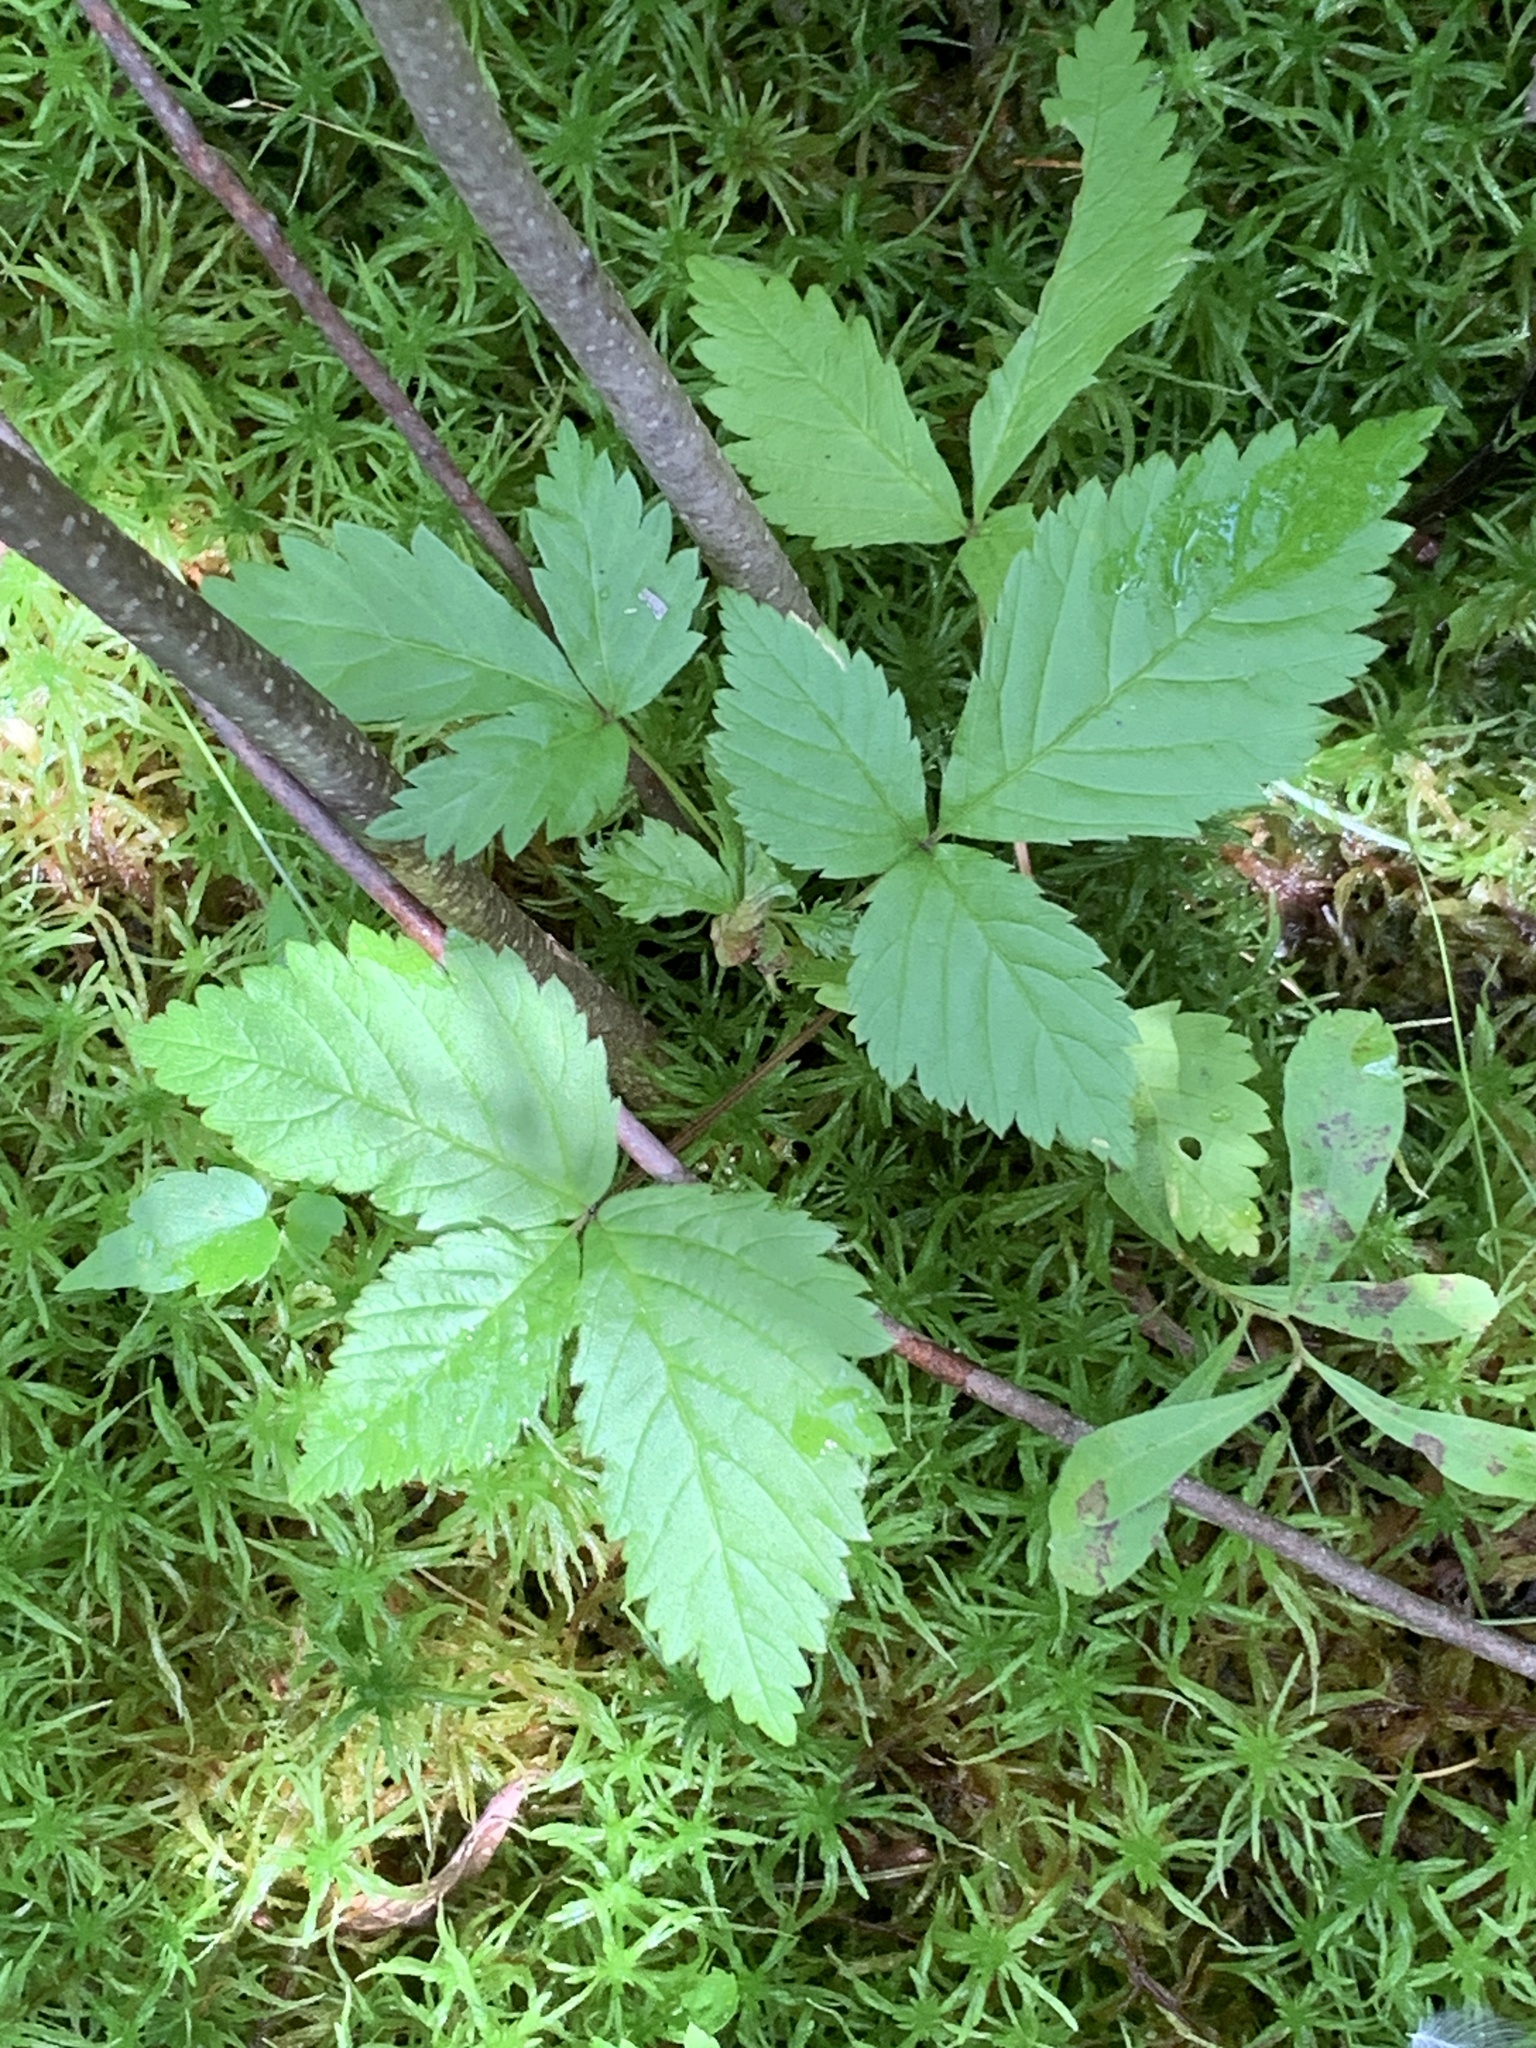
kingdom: Plantae
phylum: Tracheophyta
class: Magnoliopsida
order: Rosales
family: Rosaceae
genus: Rubus
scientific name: Rubus pubescens
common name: Dwarf raspberry
